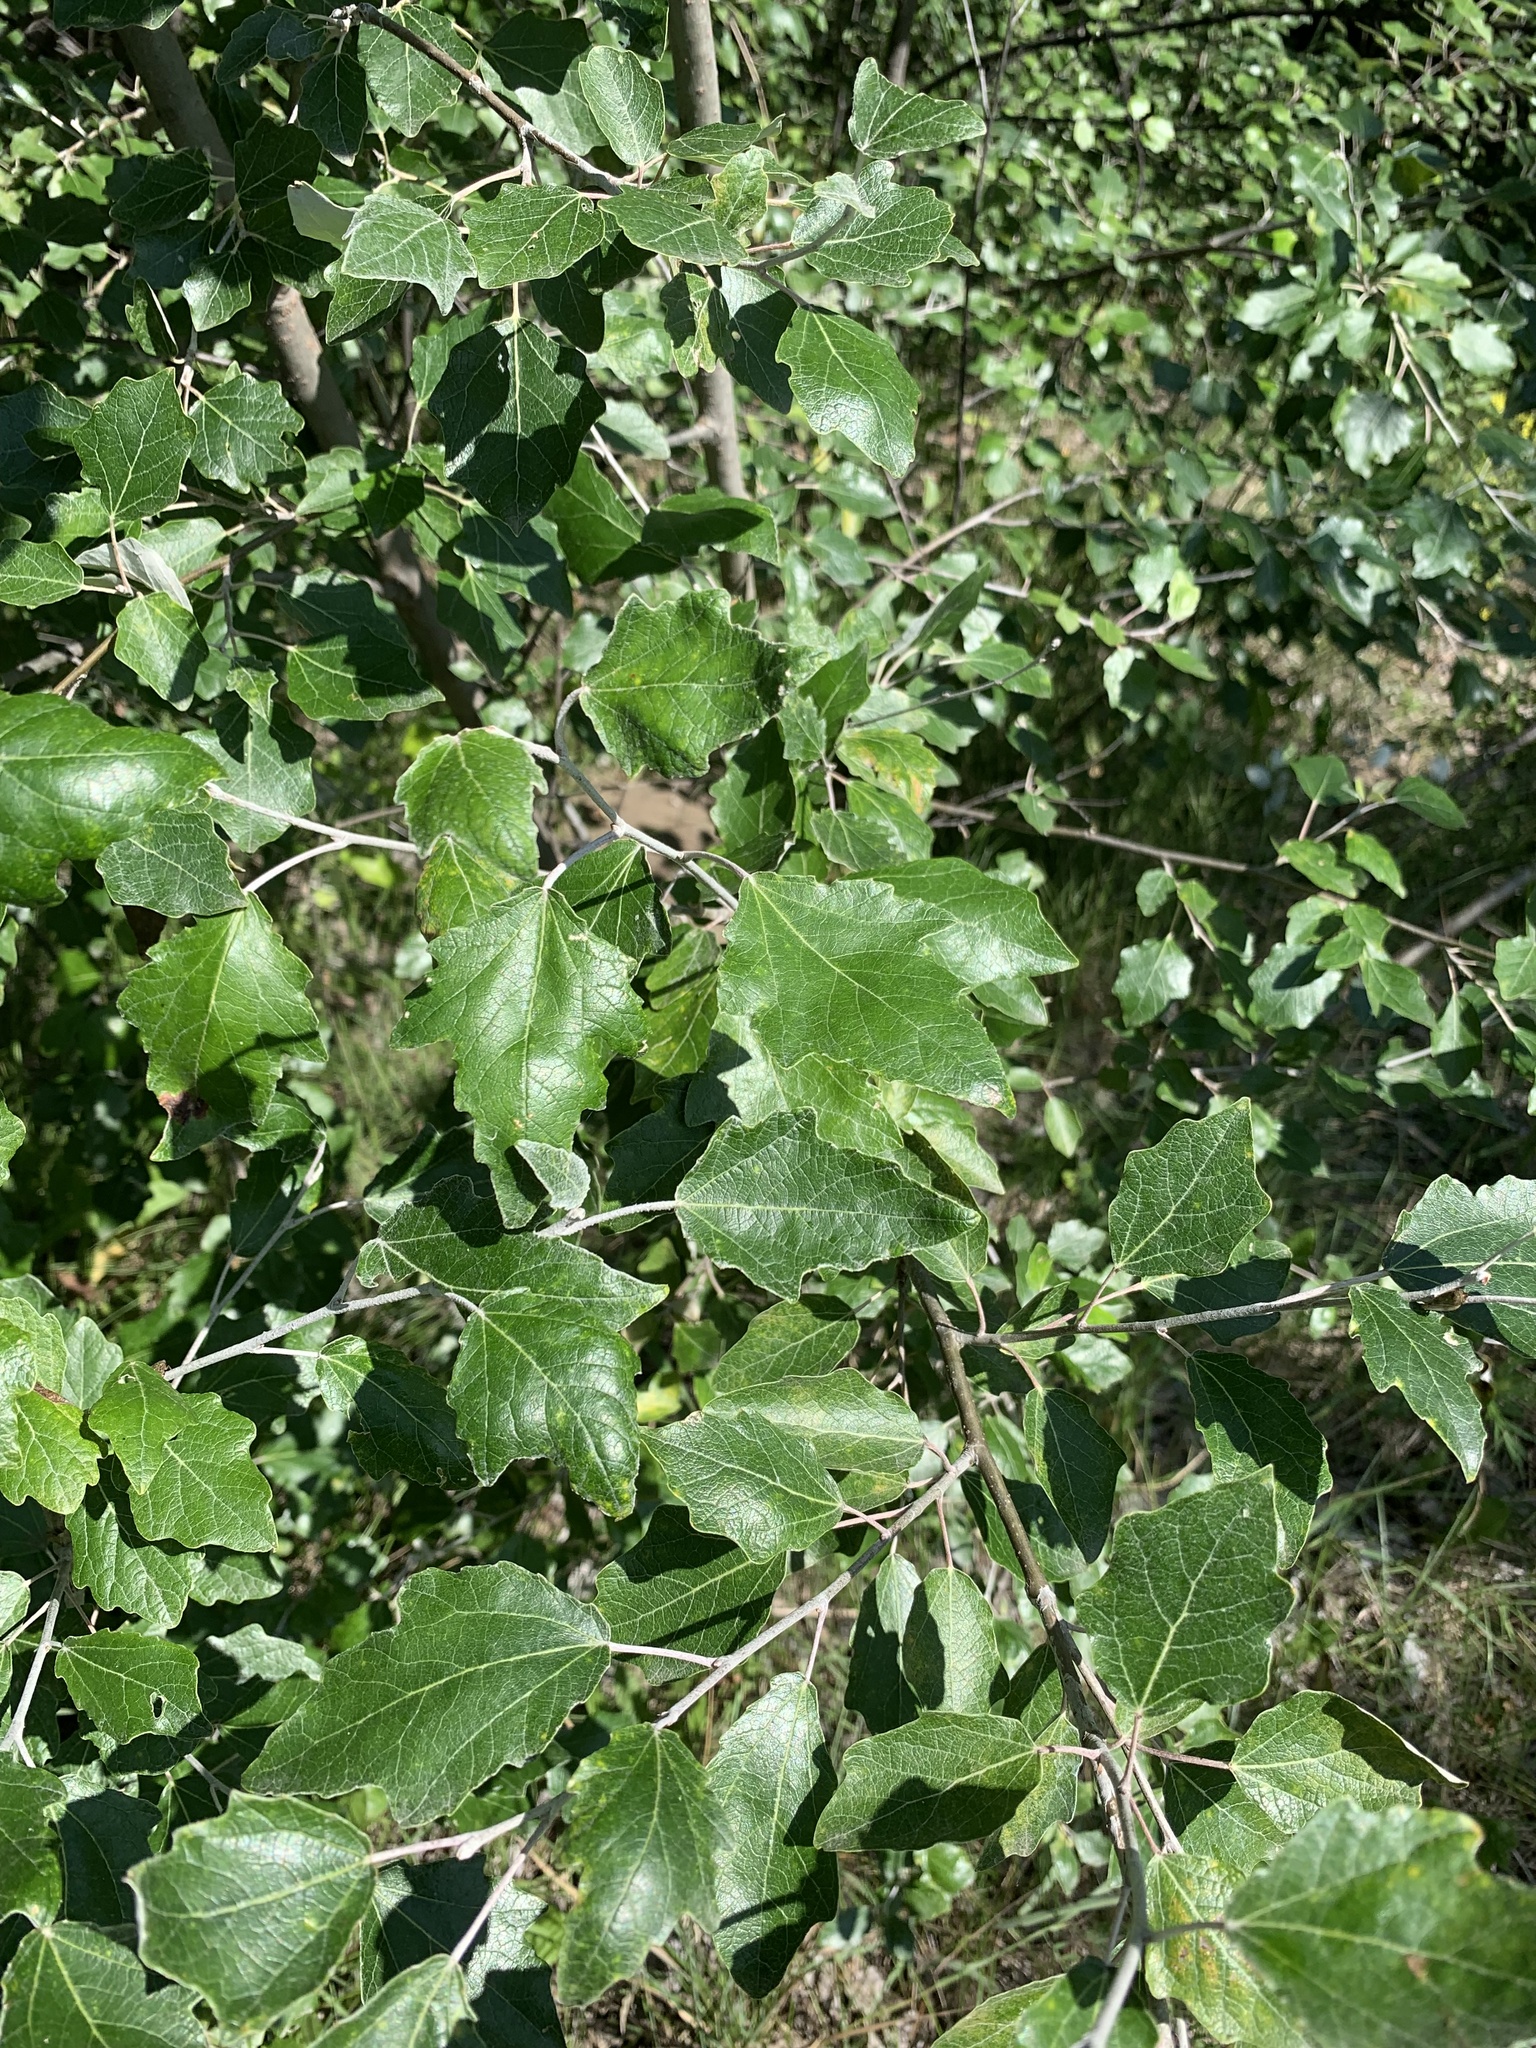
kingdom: Plantae
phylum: Tracheophyta
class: Magnoliopsida
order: Malpighiales
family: Salicaceae
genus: Populus
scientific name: Populus alba
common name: White poplar
